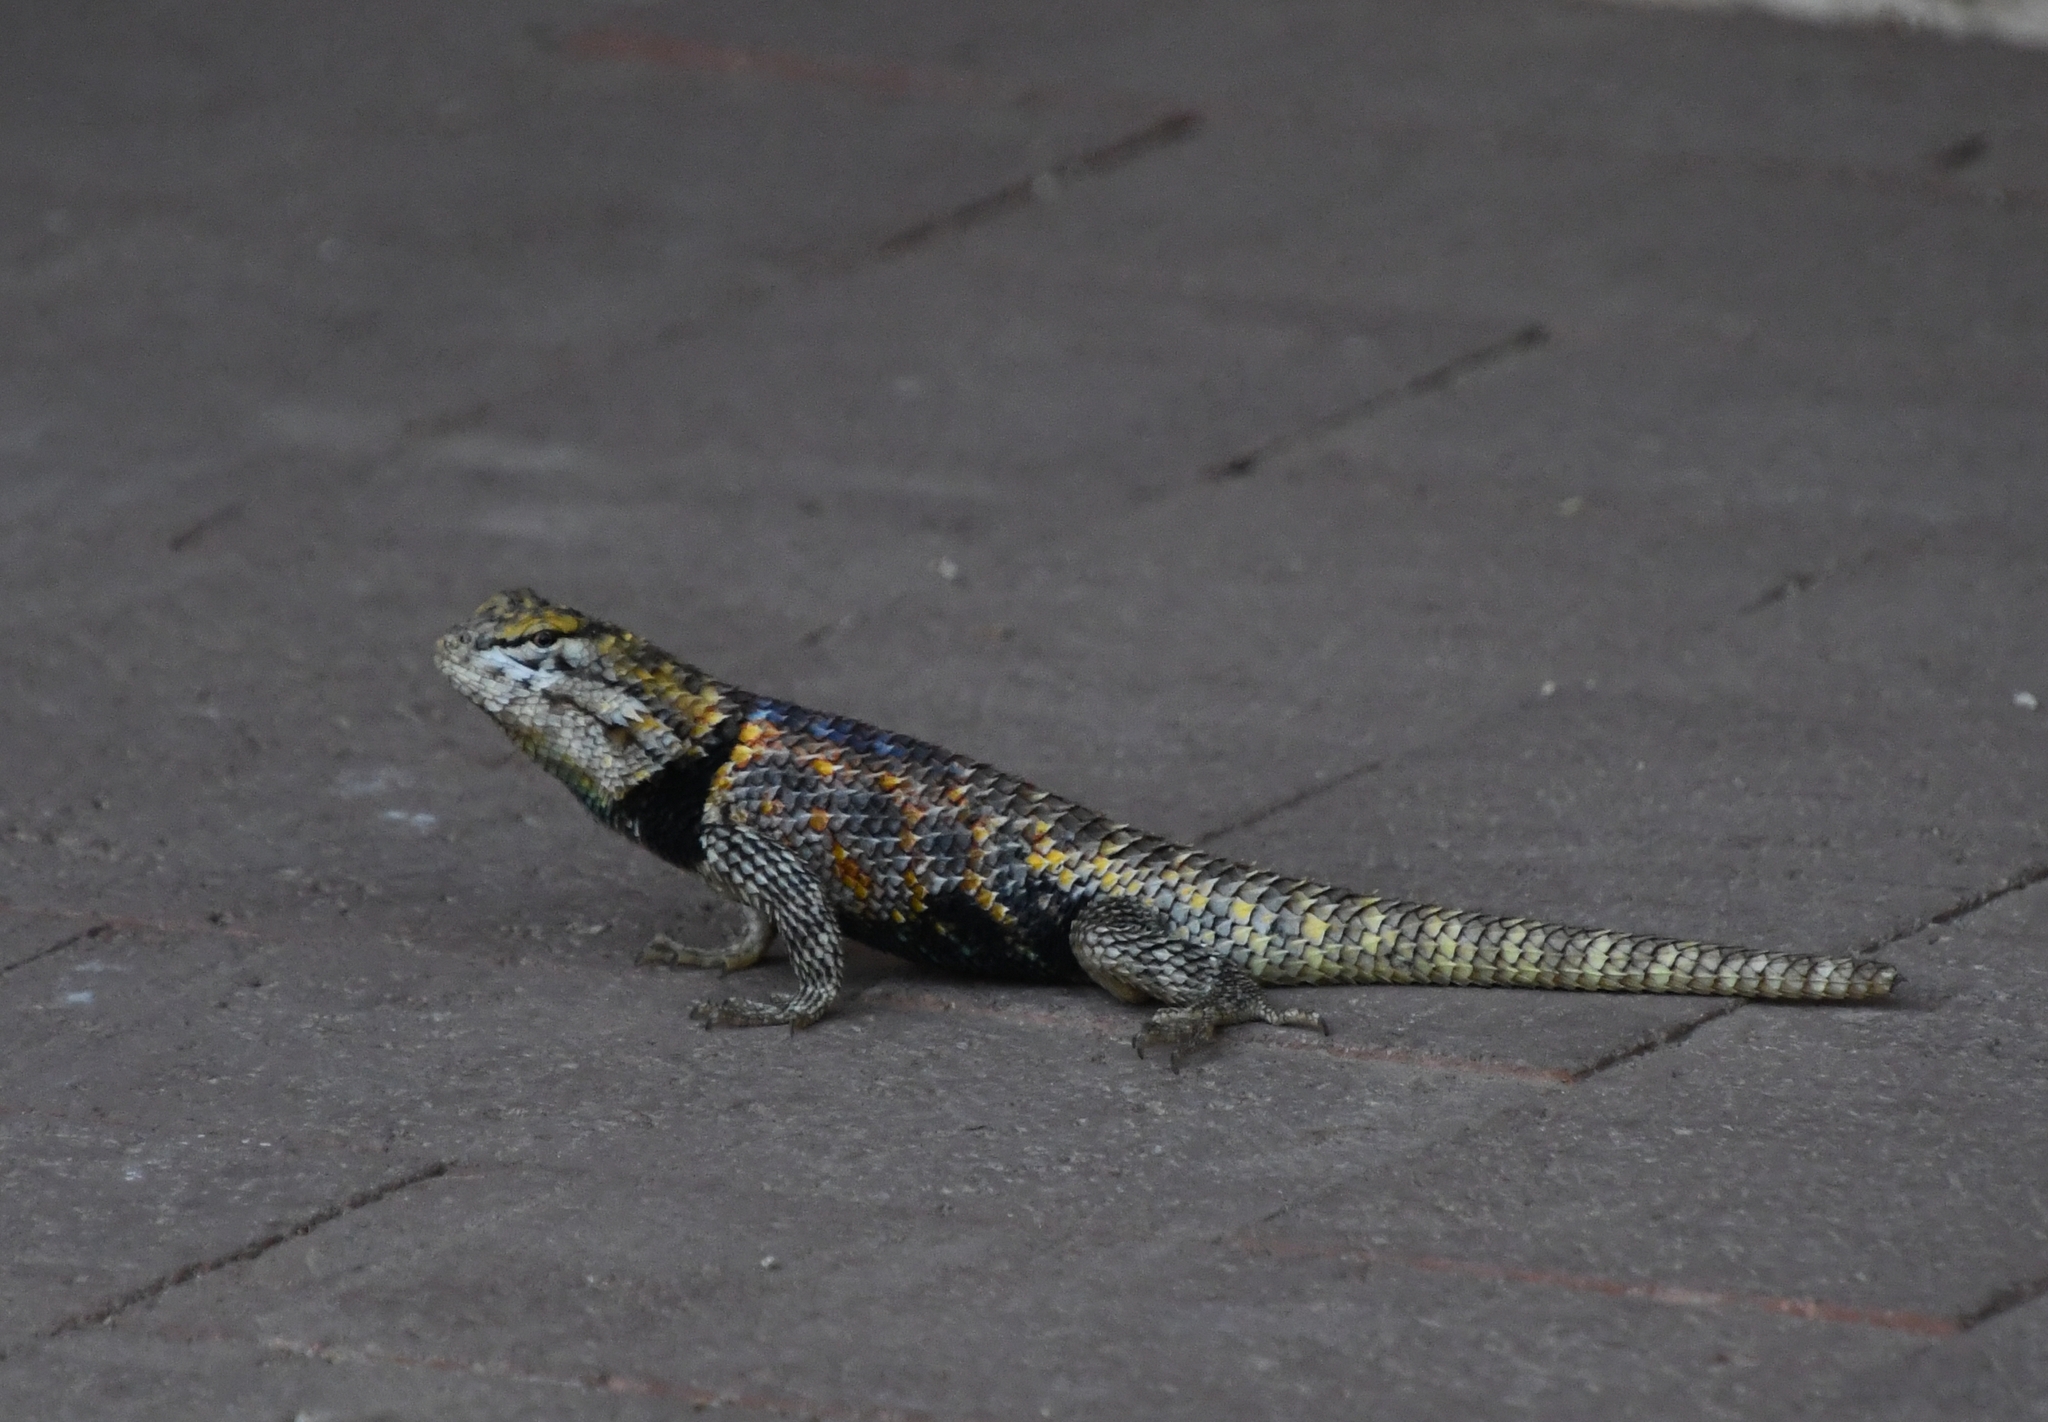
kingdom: Animalia
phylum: Chordata
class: Squamata
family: Phrynosomatidae
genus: Sceloporus
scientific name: Sceloporus magister
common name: Desert spiny lizard
